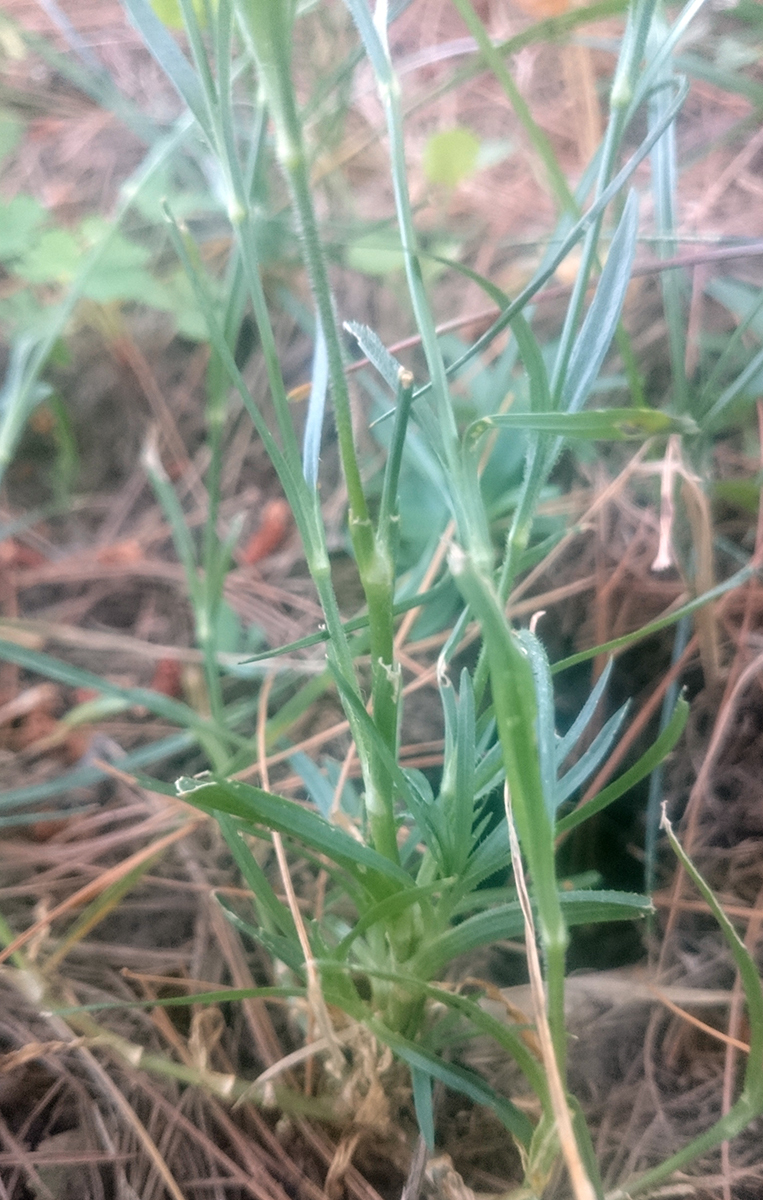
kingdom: Plantae
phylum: Tracheophyta
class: Magnoliopsida
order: Caryophyllales
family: Caryophyllaceae
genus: Dianthus
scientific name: Dianthus armeria
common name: Deptford pink
